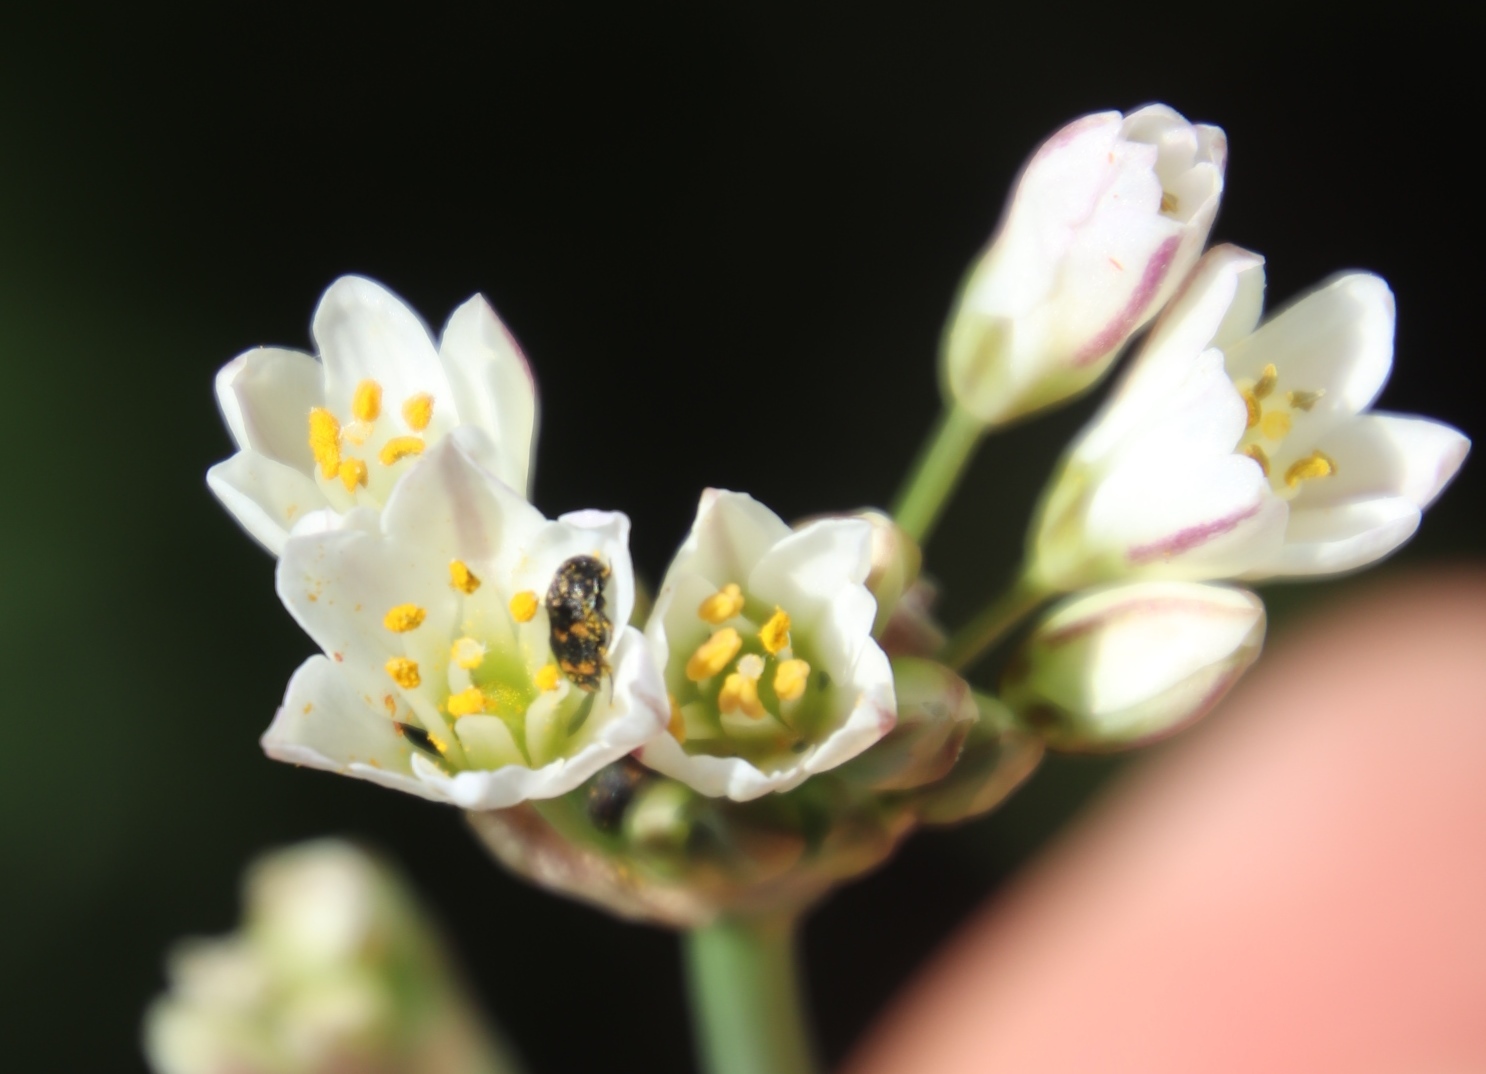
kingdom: Plantae
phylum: Tracheophyta
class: Liliopsida
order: Asparagales
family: Amaryllidaceae
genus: Nothoscordum
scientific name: Nothoscordum gracile
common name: Slender false garlic
